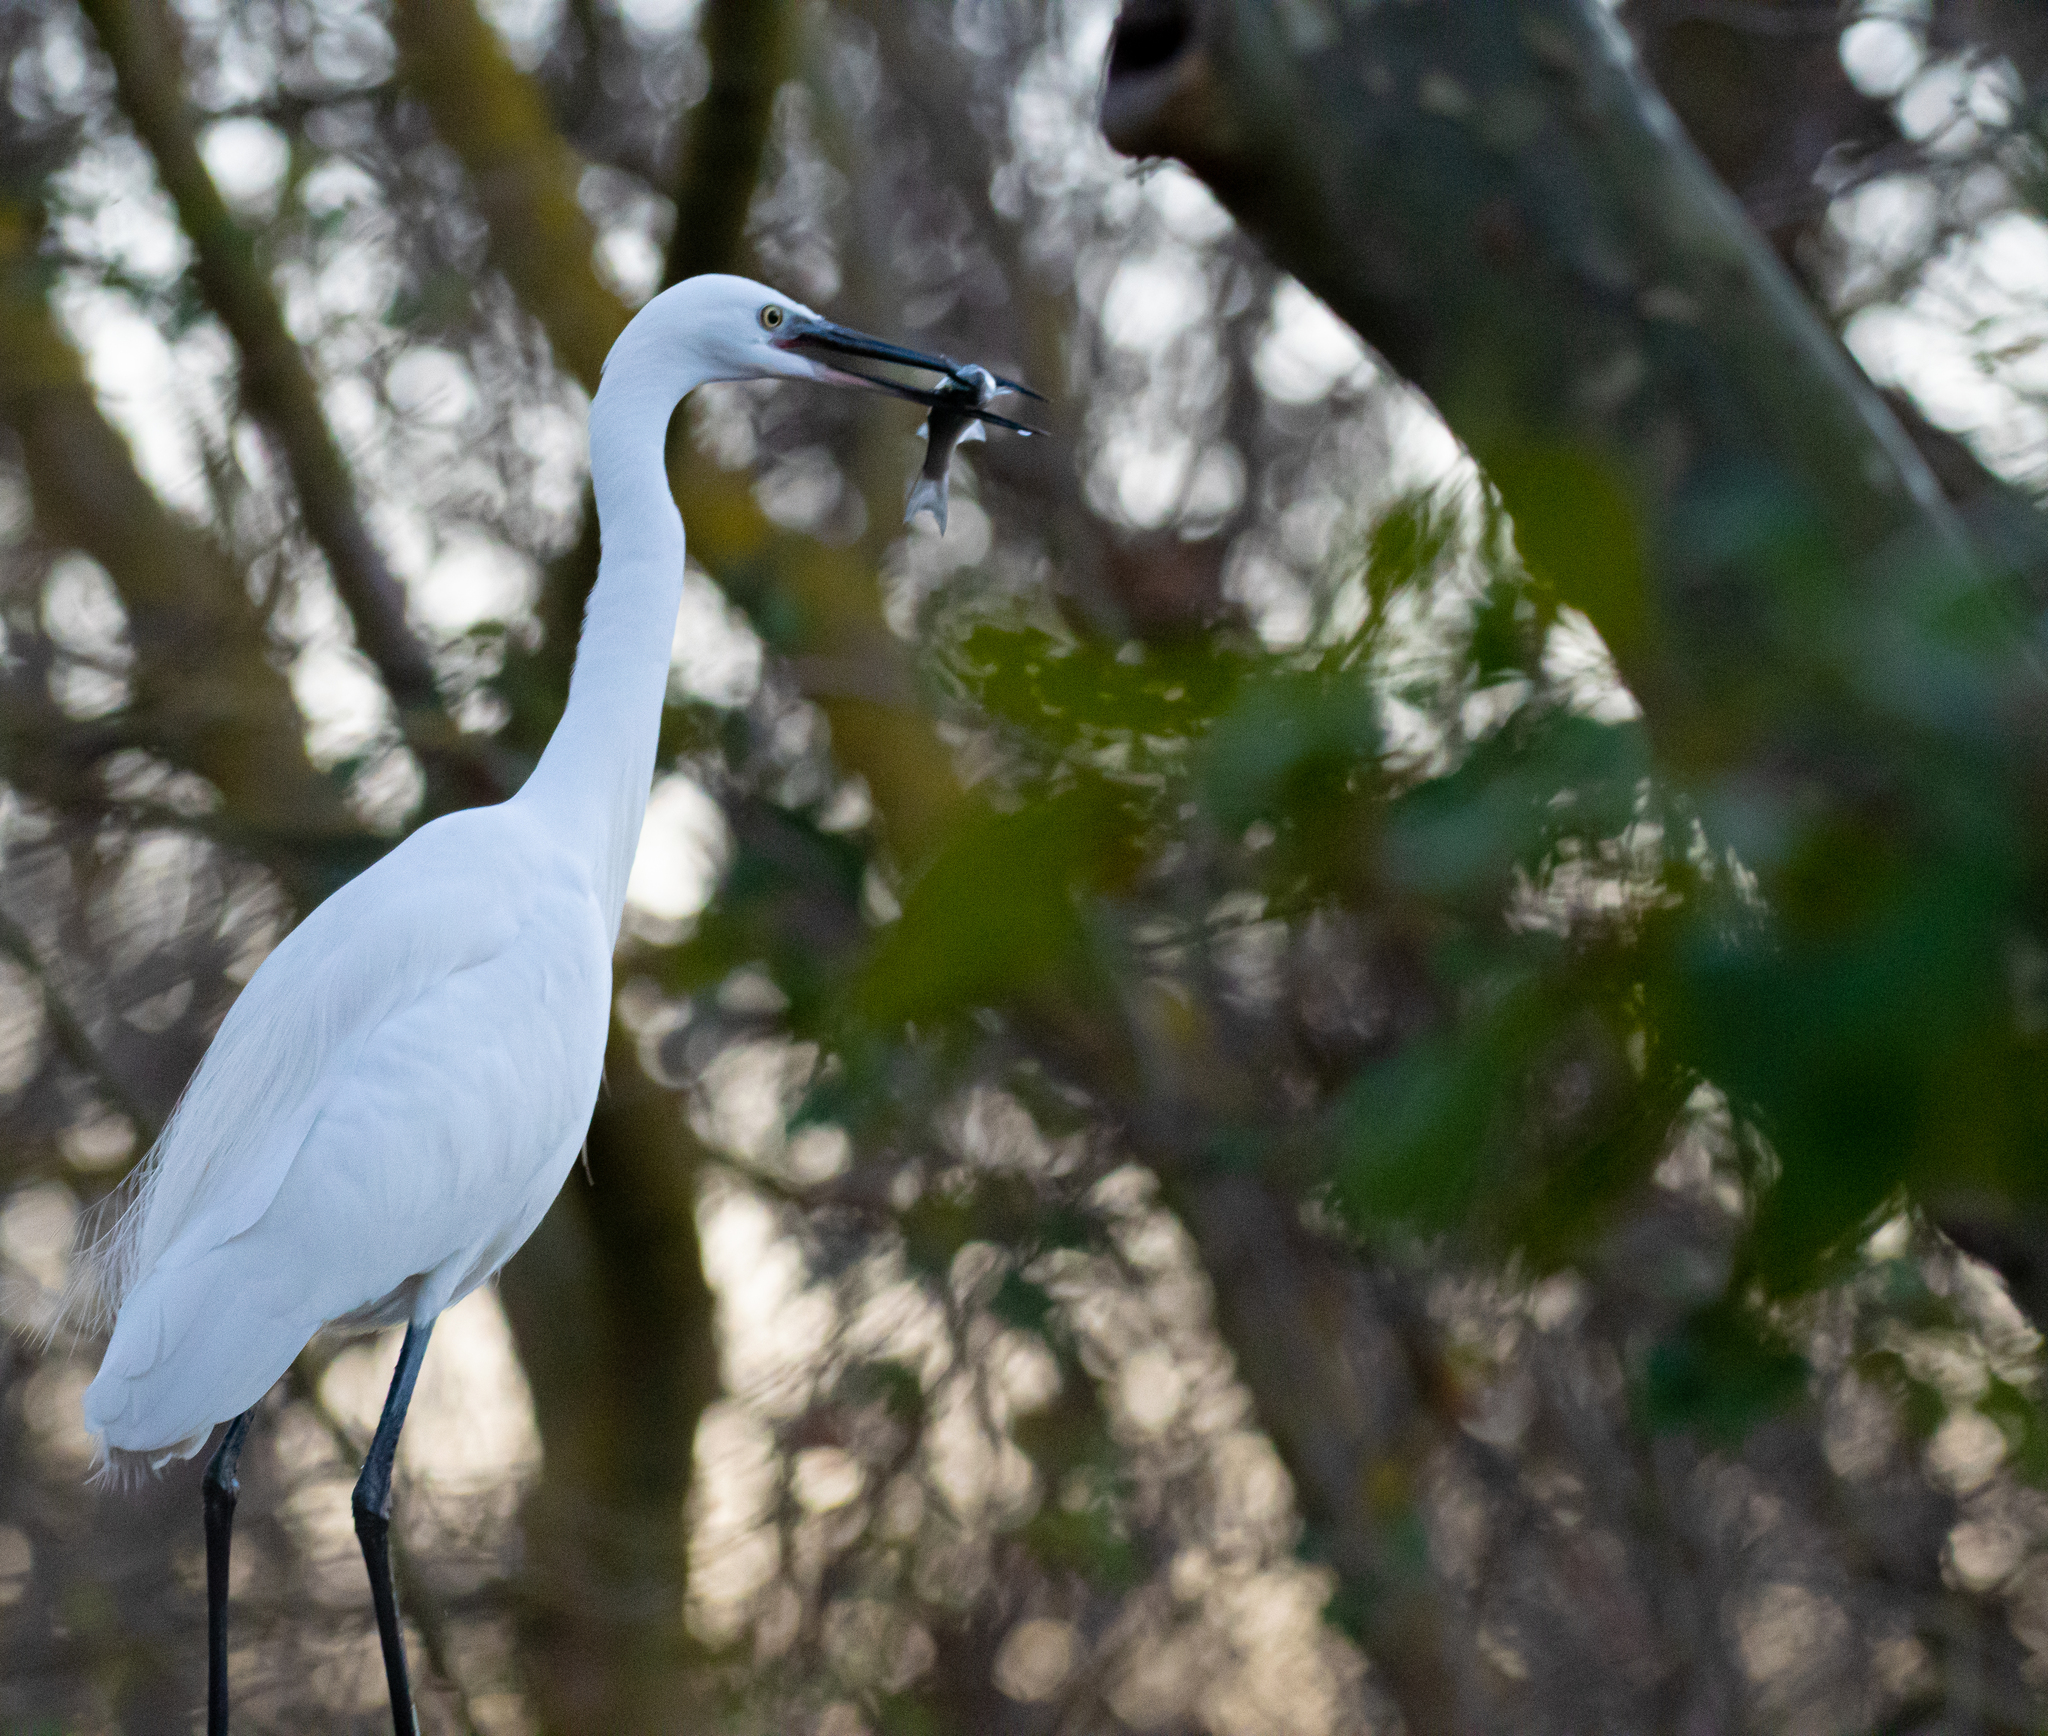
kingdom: Animalia
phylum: Chordata
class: Aves
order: Pelecaniformes
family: Ardeidae
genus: Egretta
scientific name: Egretta garzetta
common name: Little egret
